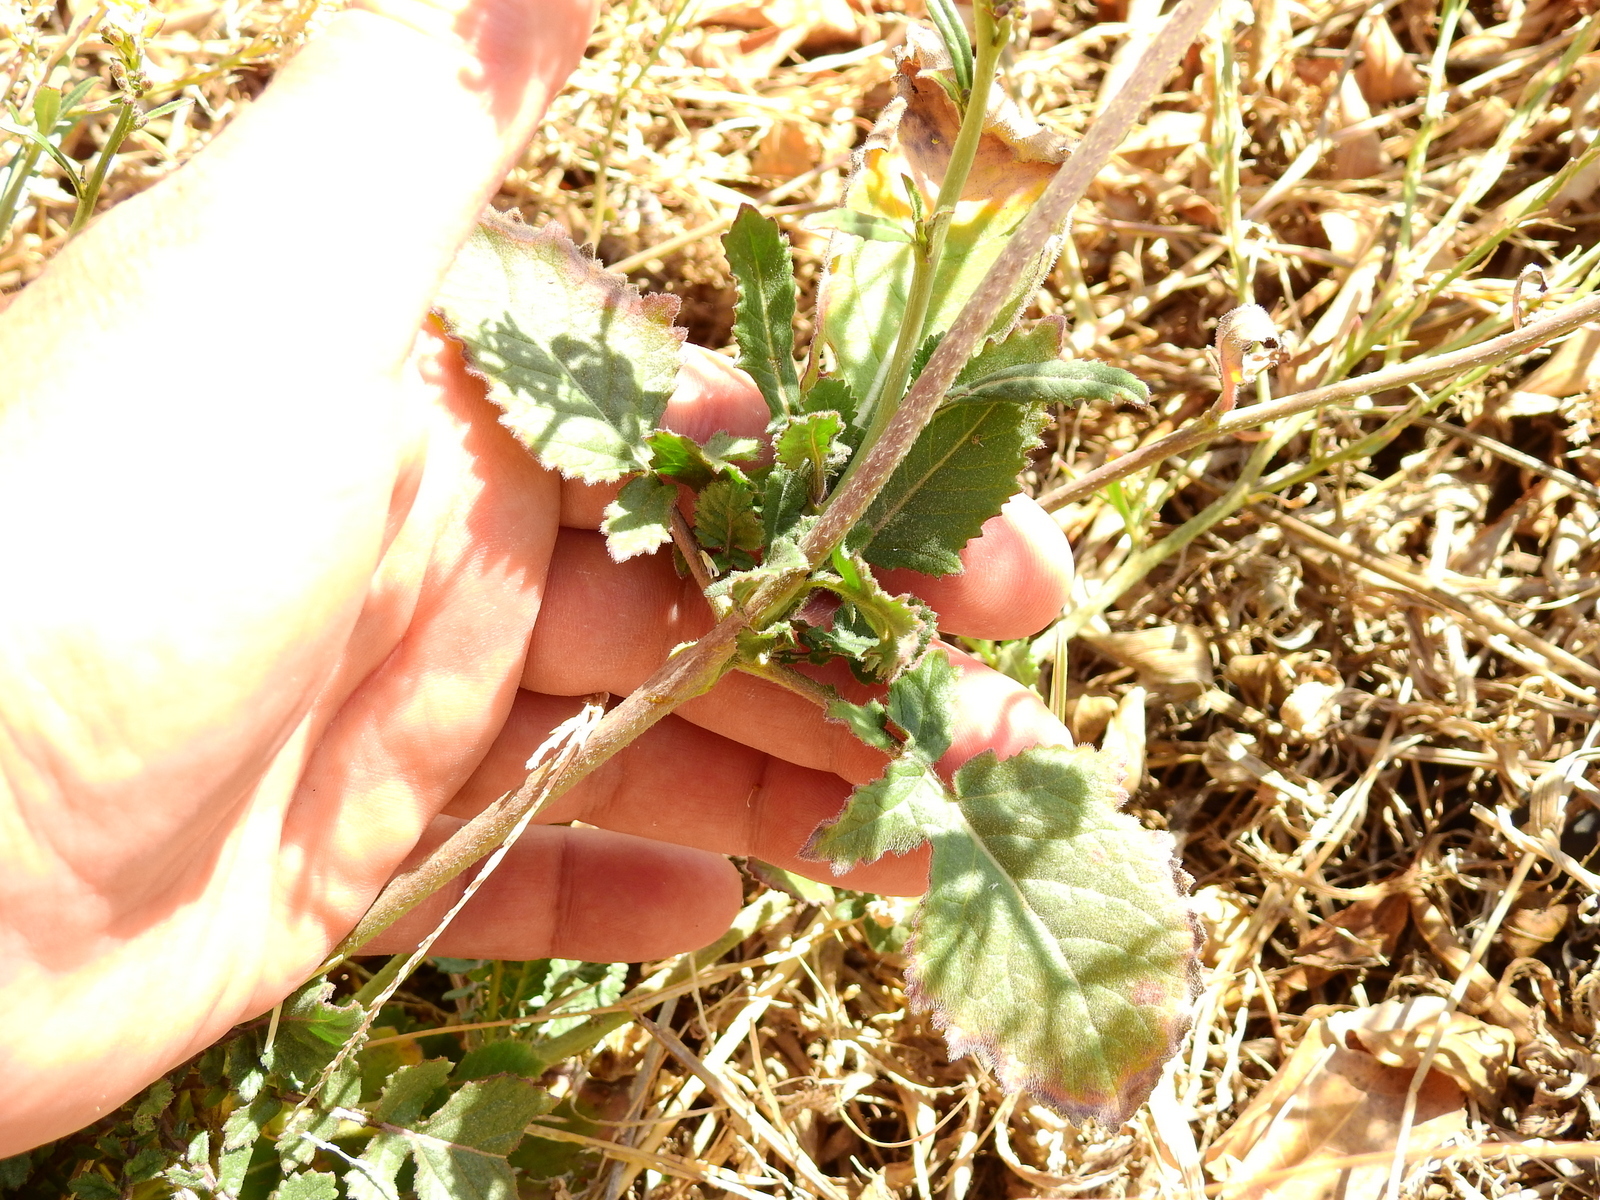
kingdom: Plantae
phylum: Tracheophyta
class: Magnoliopsida
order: Brassicales
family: Brassicaceae
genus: Hirschfeldia
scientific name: Hirschfeldia incana
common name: Hoary mustard
